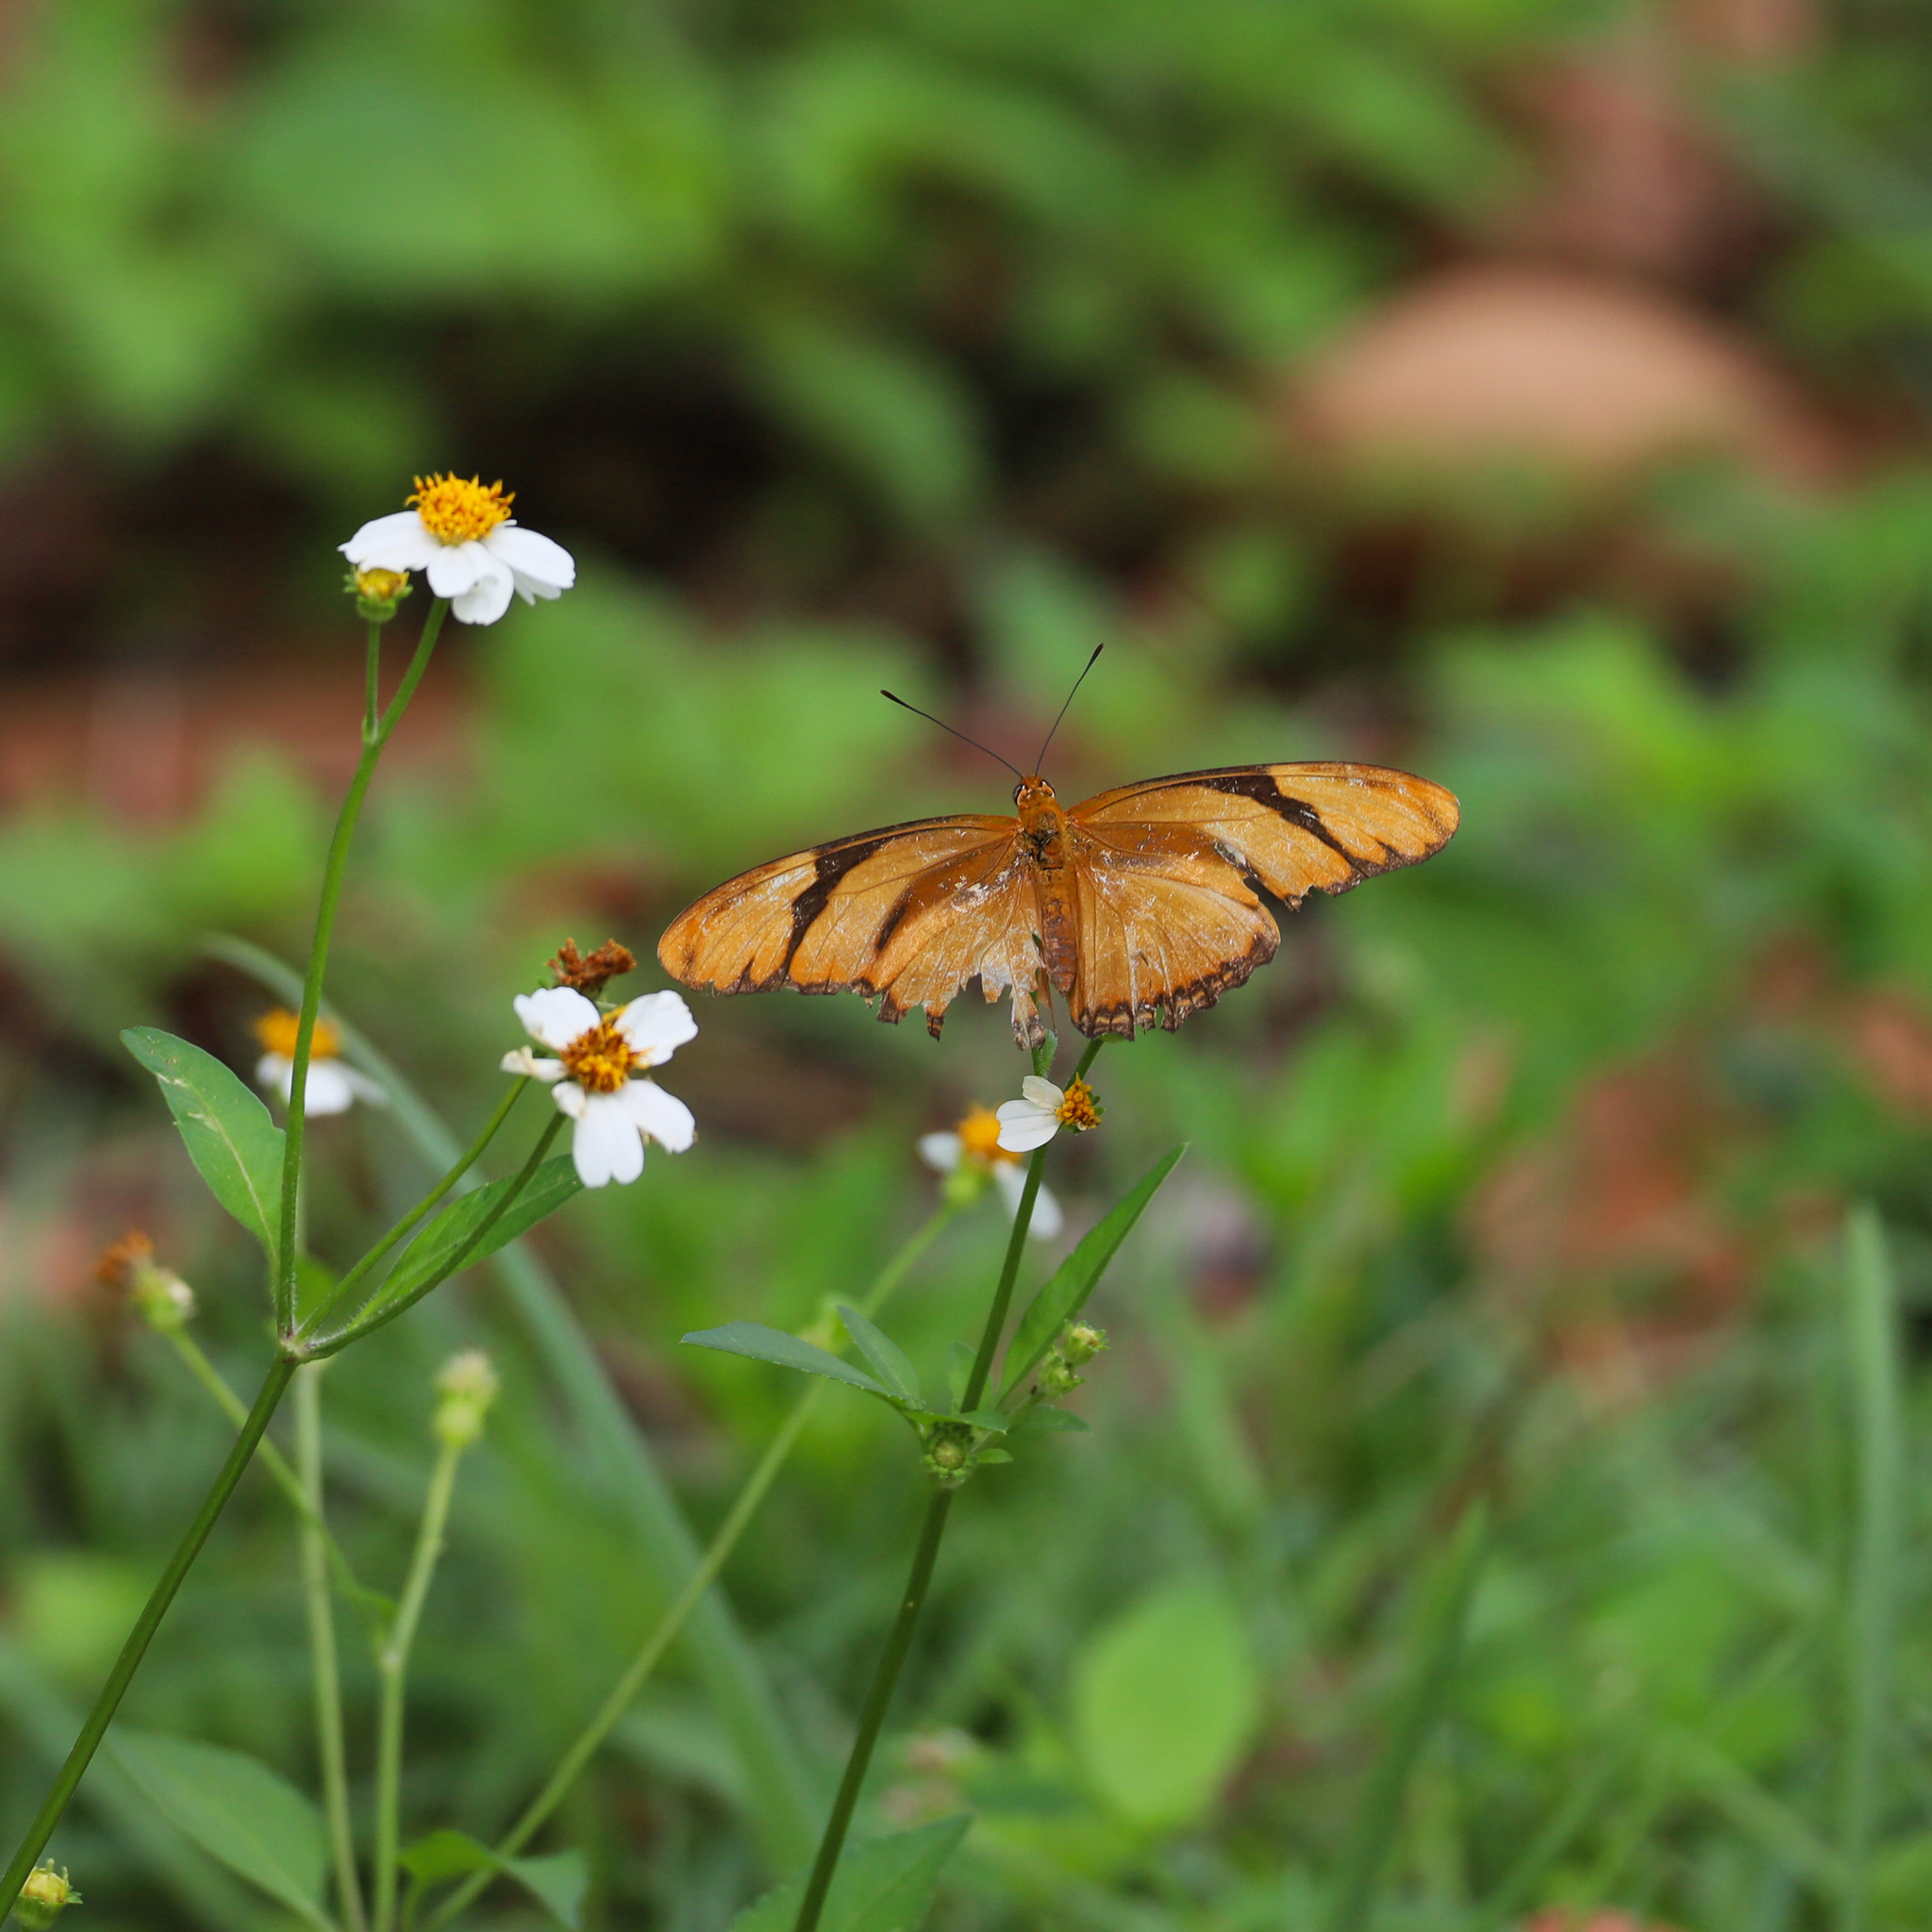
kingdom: Animalia
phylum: Arthropoda
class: Insecta
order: Lepidoptera
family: Nymphalidae
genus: Dryas
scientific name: Dryas iulia
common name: Flambeau
